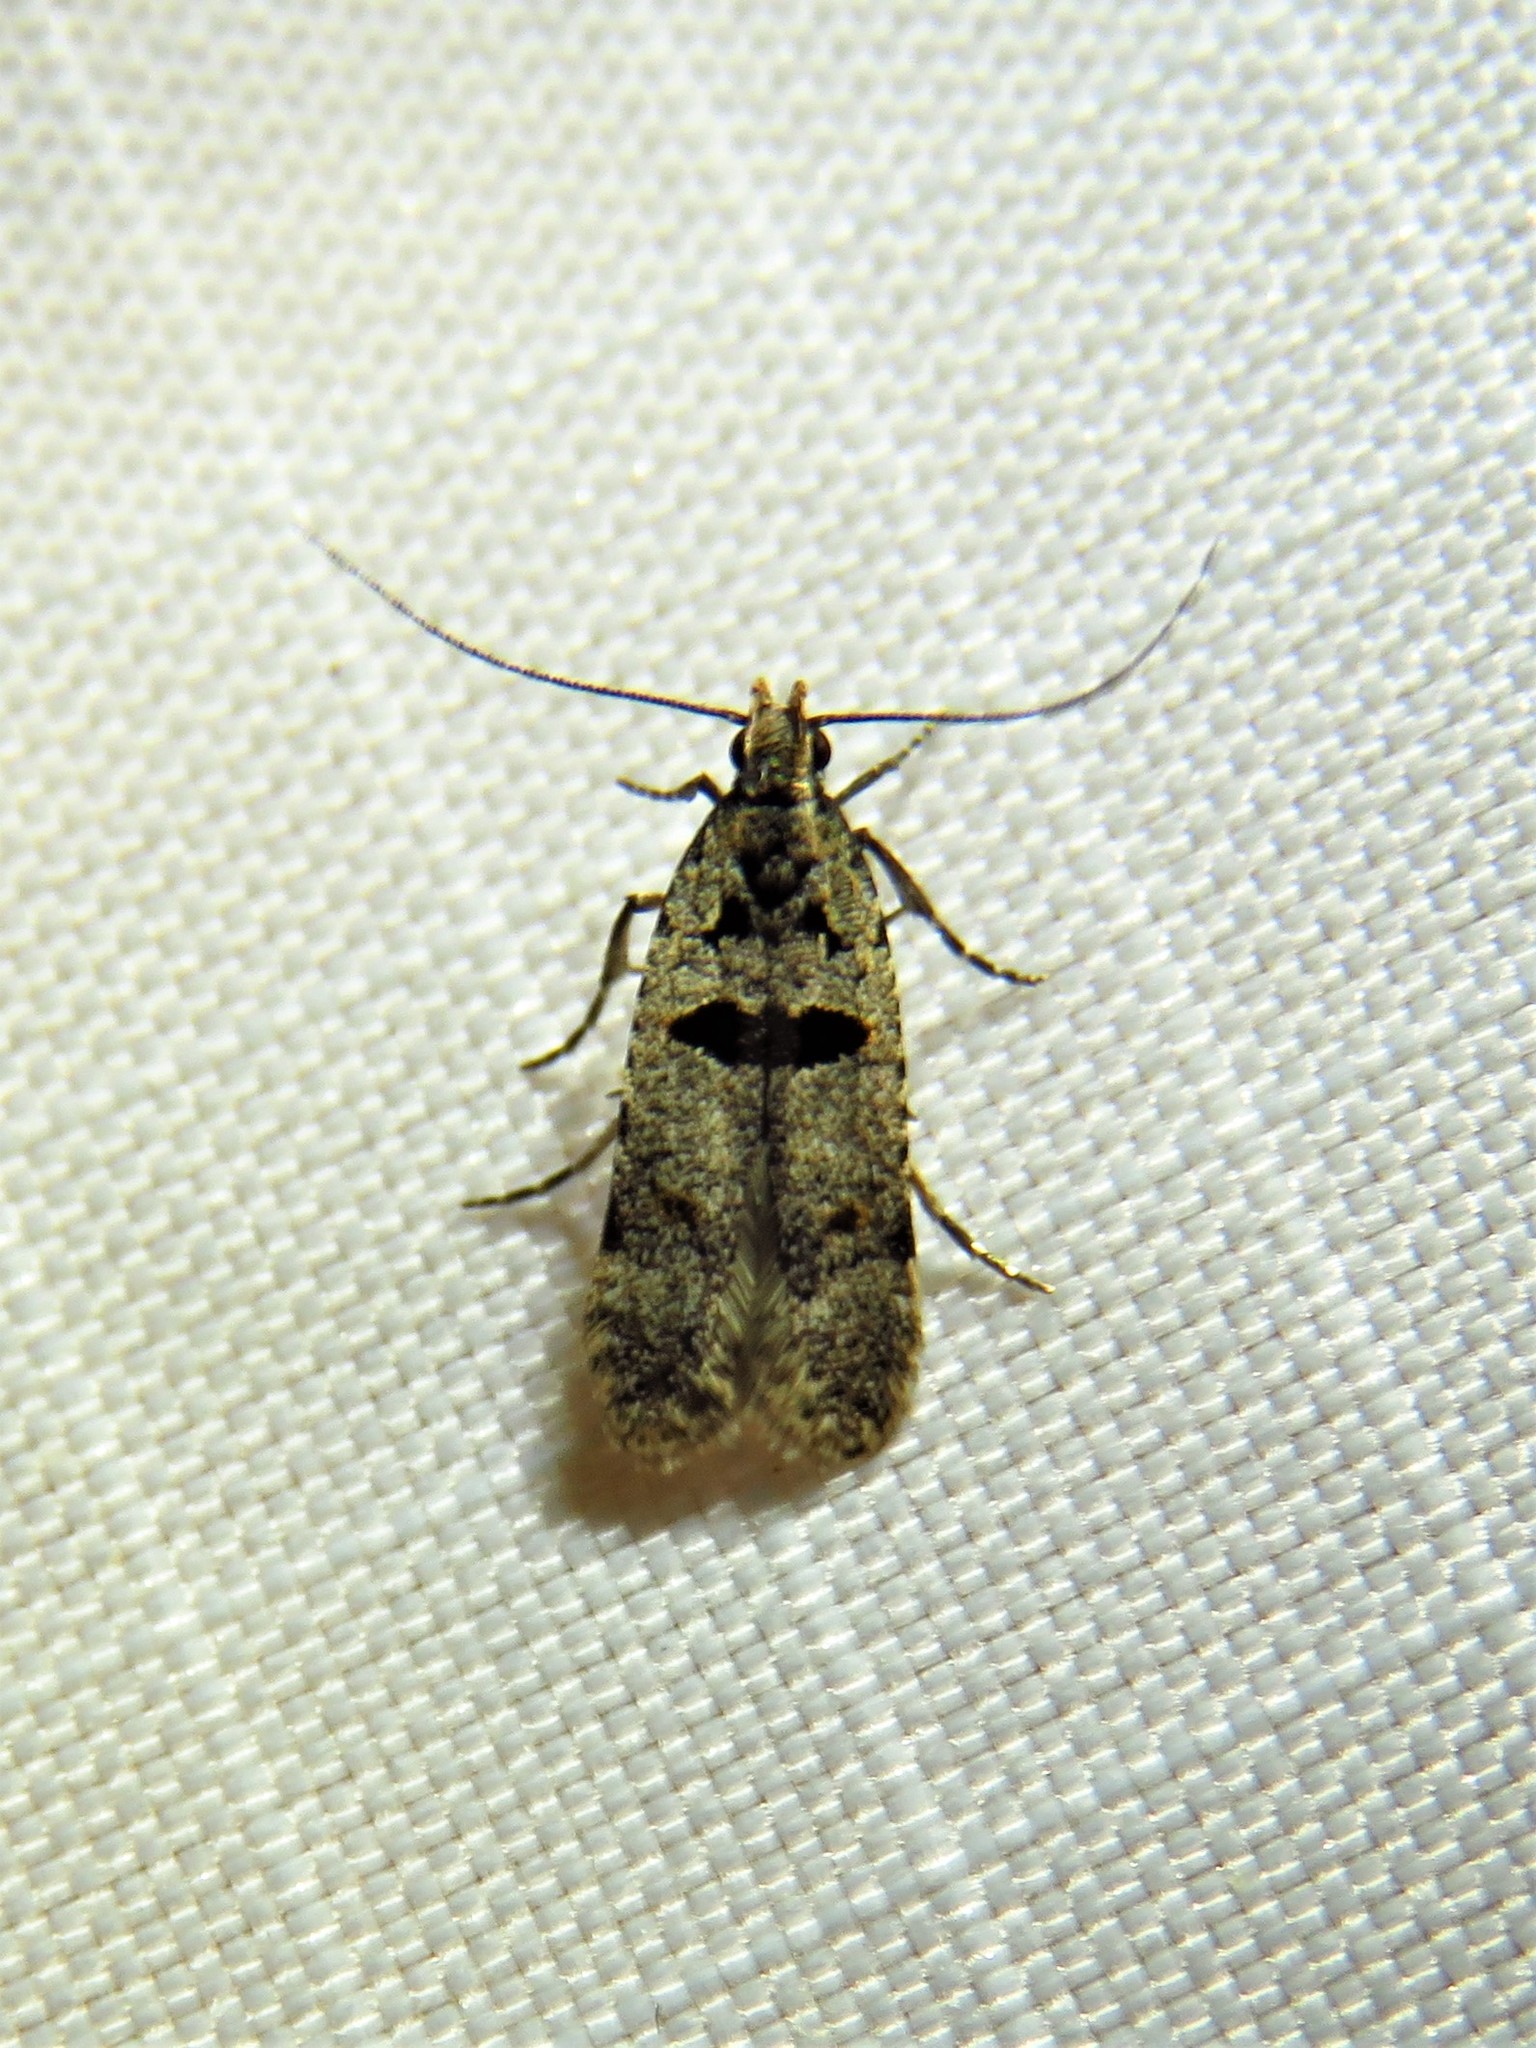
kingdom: Animalia
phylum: Arthropoda
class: Insecta
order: Lepidoptera
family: Gelechiidae
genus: Deltophora
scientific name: Deltophora glandiferella
